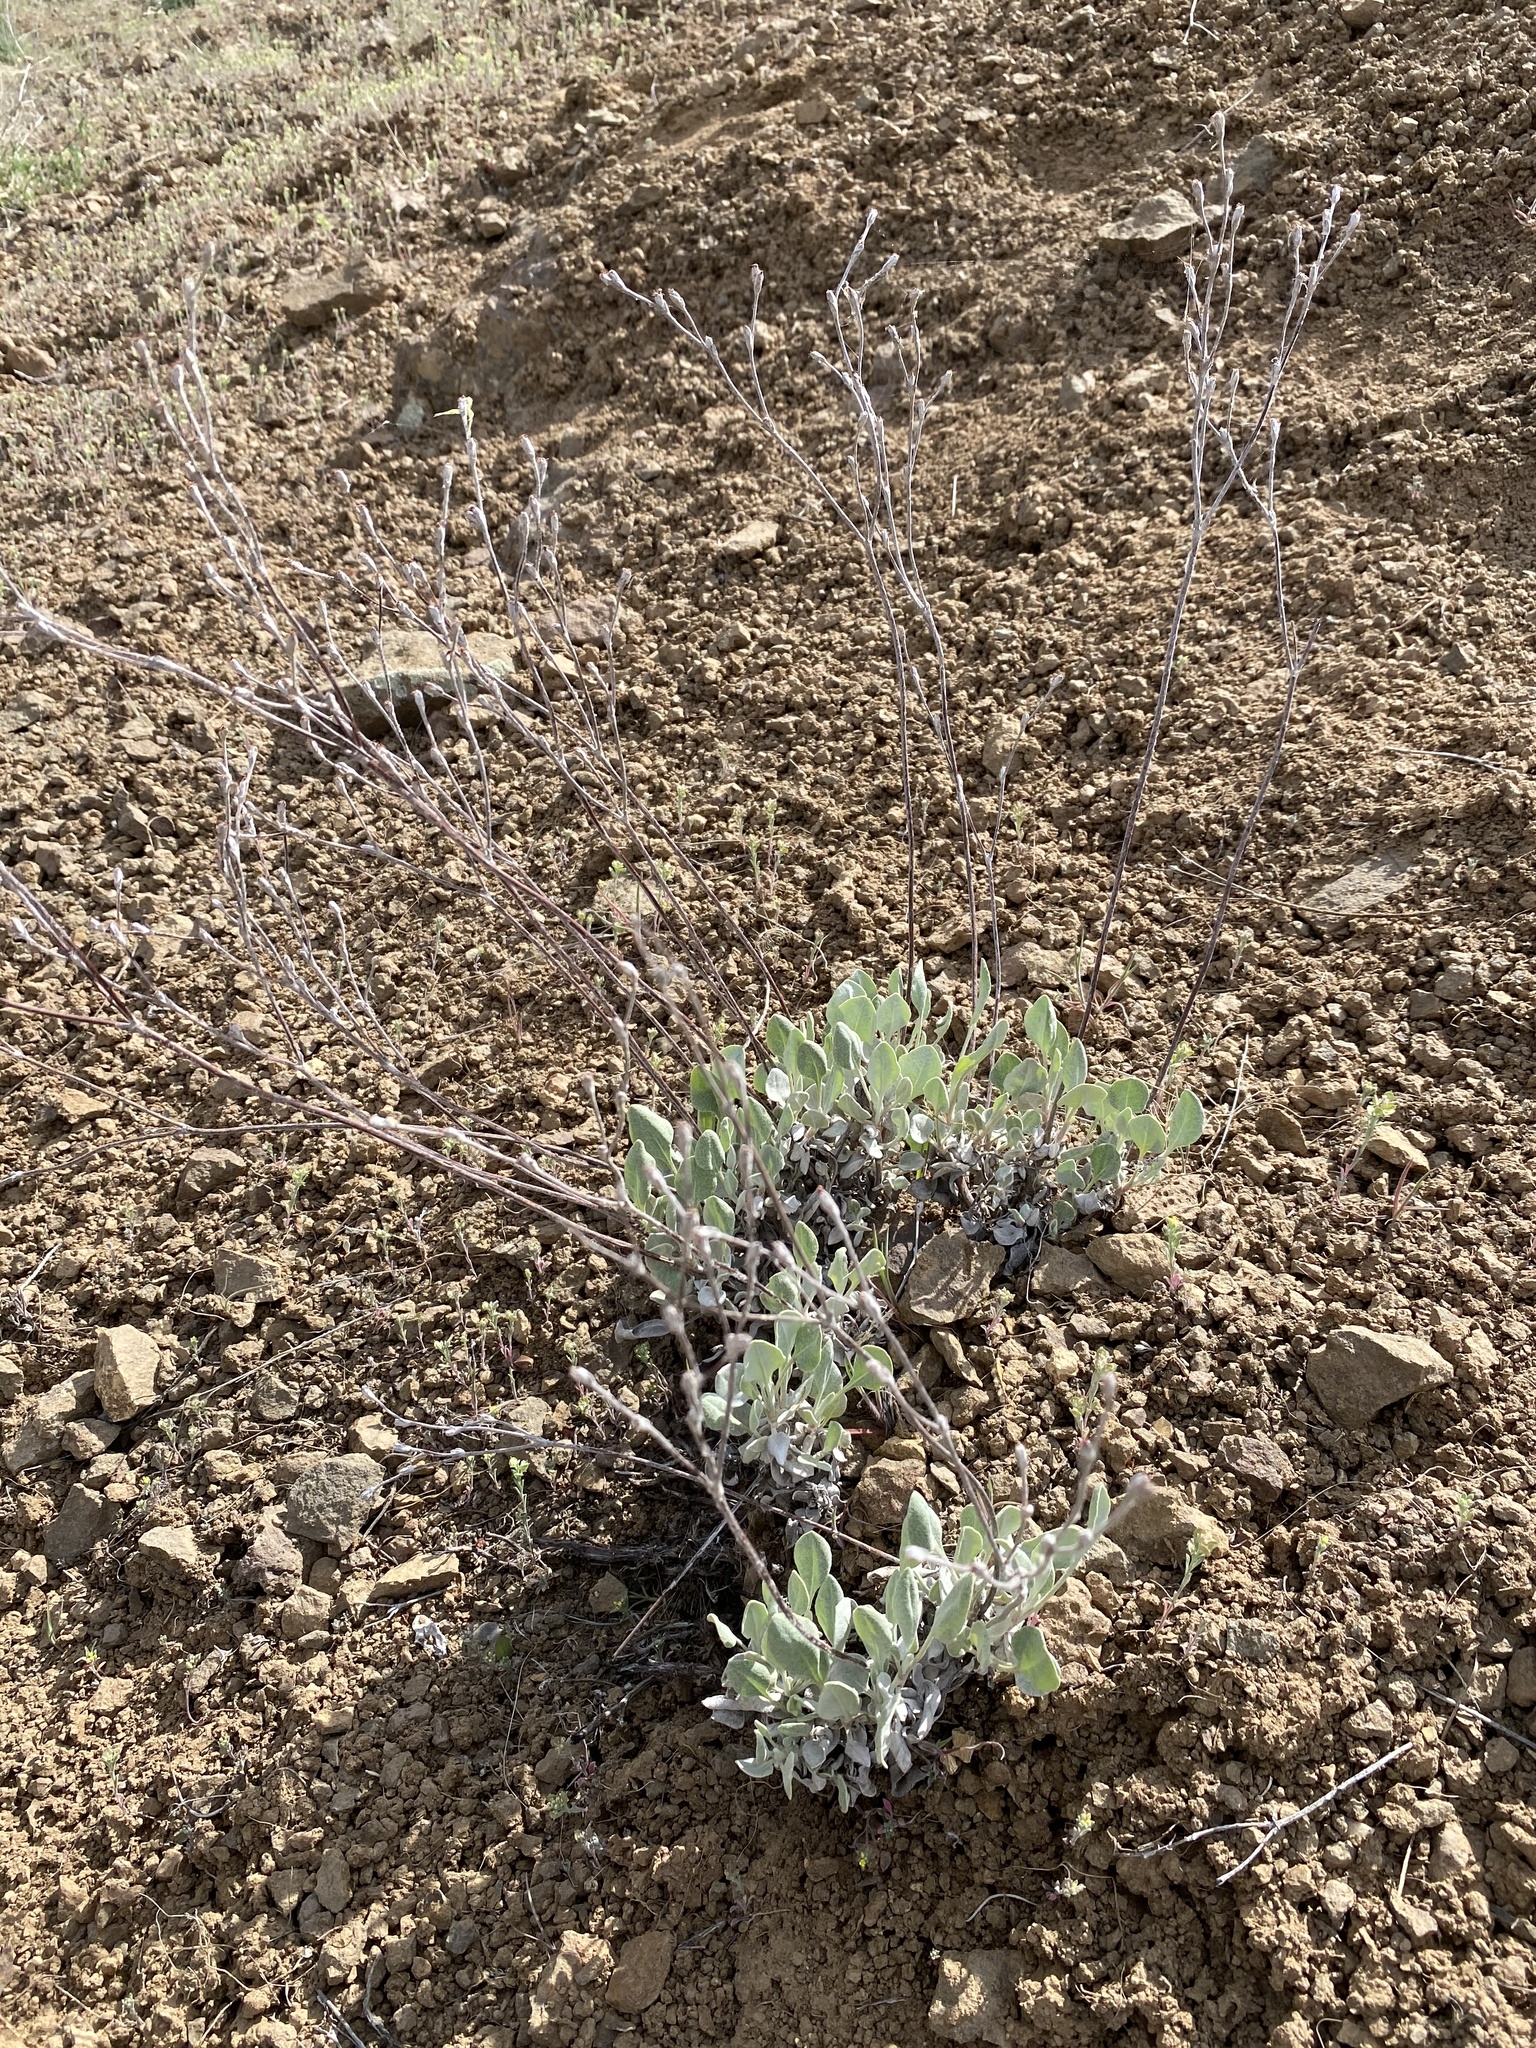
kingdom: Plantae
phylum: Tracheophyta
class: Magnoliopsida
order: Caryophyllales
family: Polygonaceae
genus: Eriogonum
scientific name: Eriogonum strictum
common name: Blue mountain buckwheat
